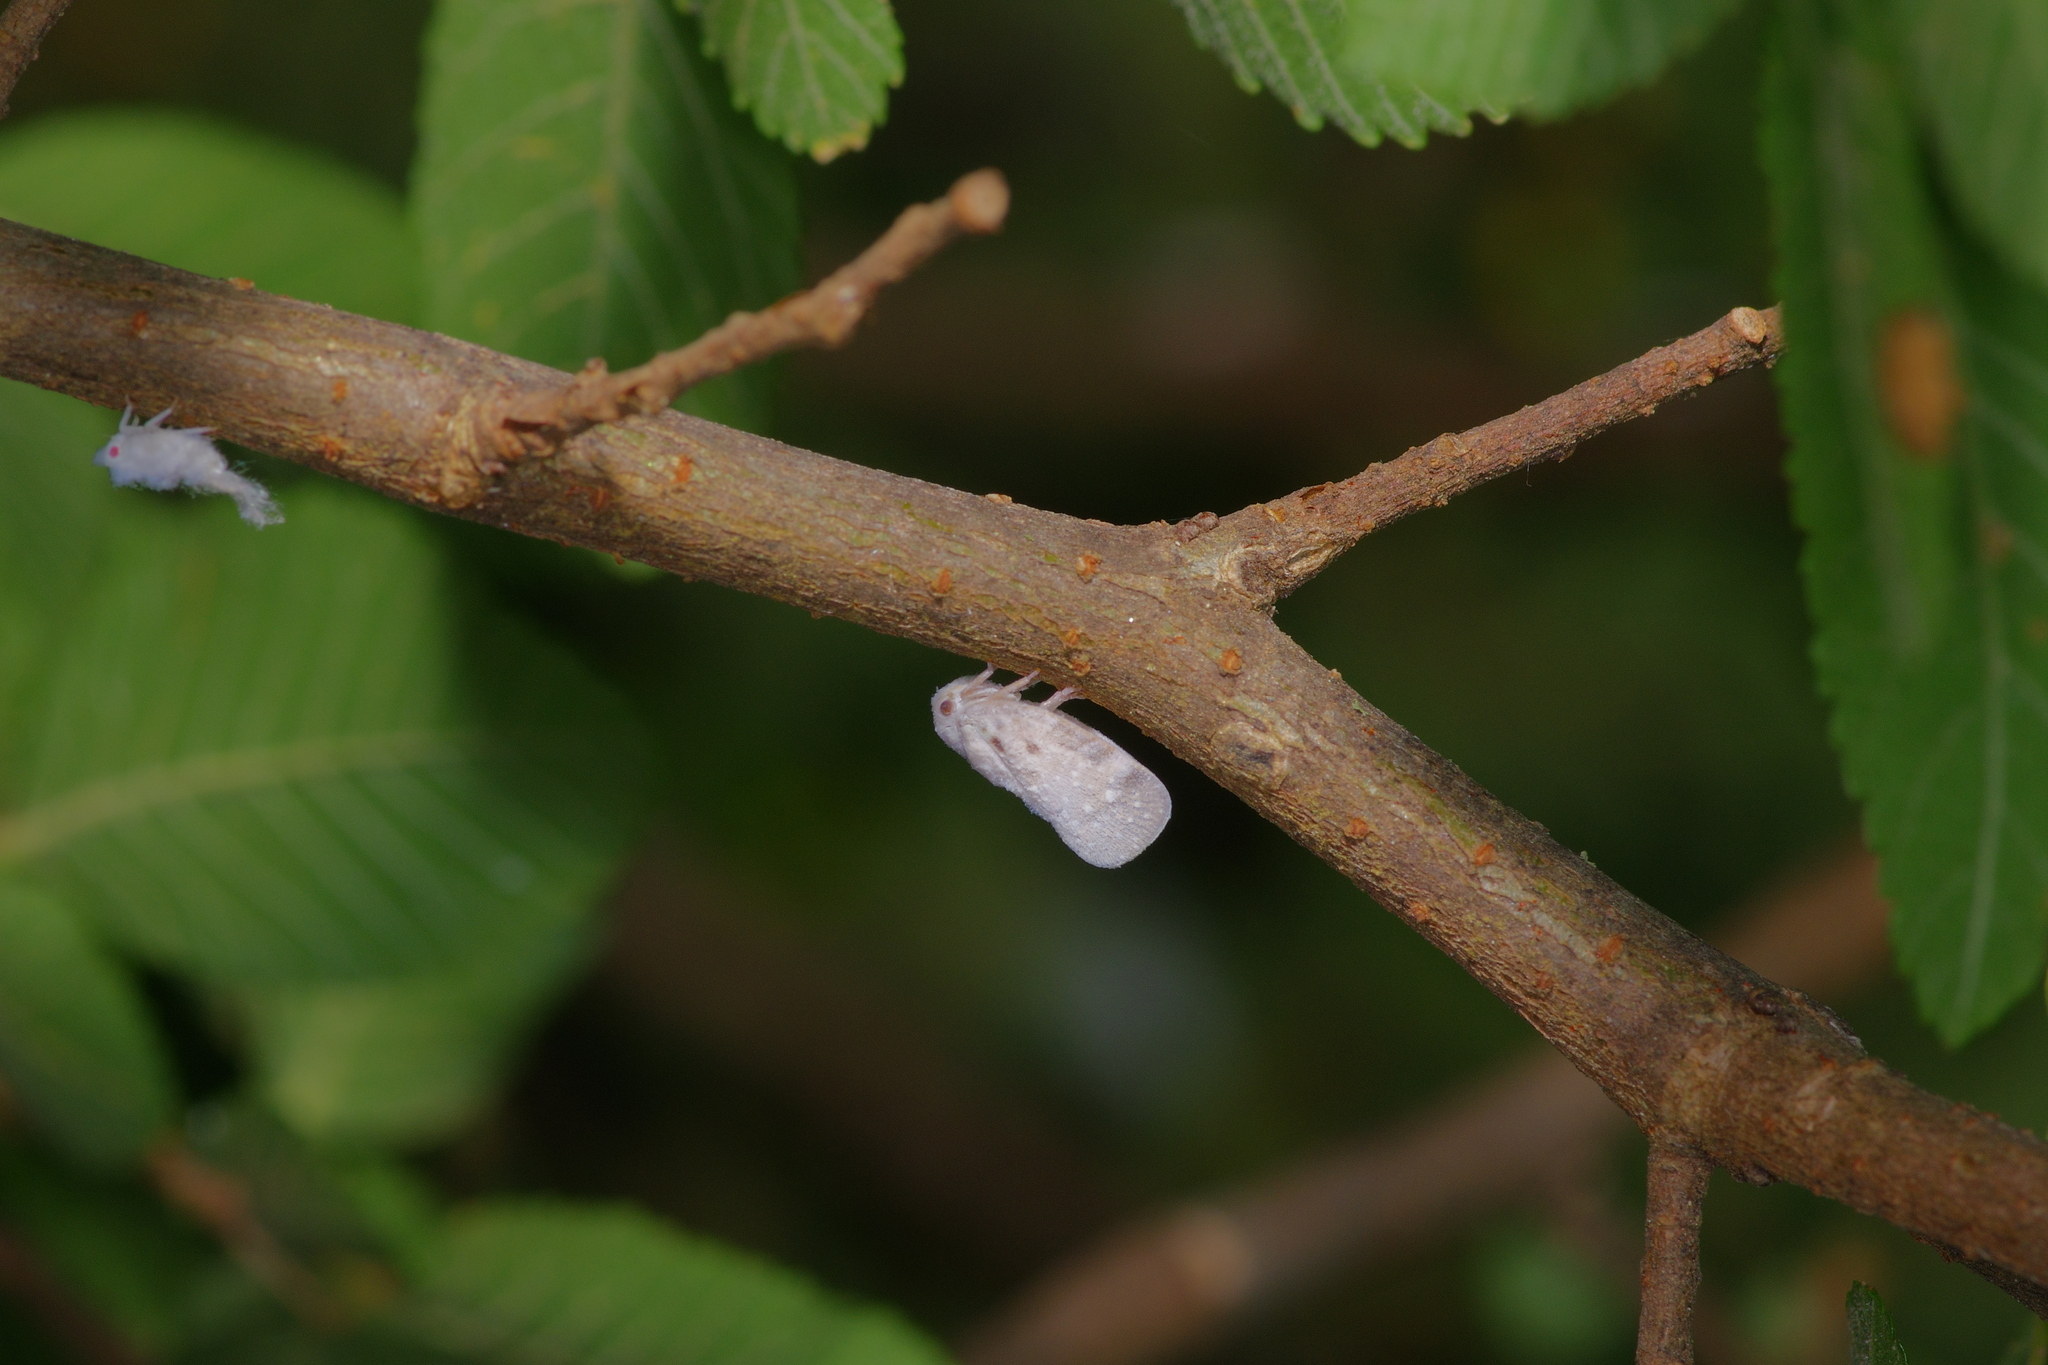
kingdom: Animalia
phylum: Arthropoda
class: Insecta
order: Hemiptera
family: Flatidae
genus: Metcalfa
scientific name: Metcalfa pruinosa
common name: Citrus flatid planthopper
